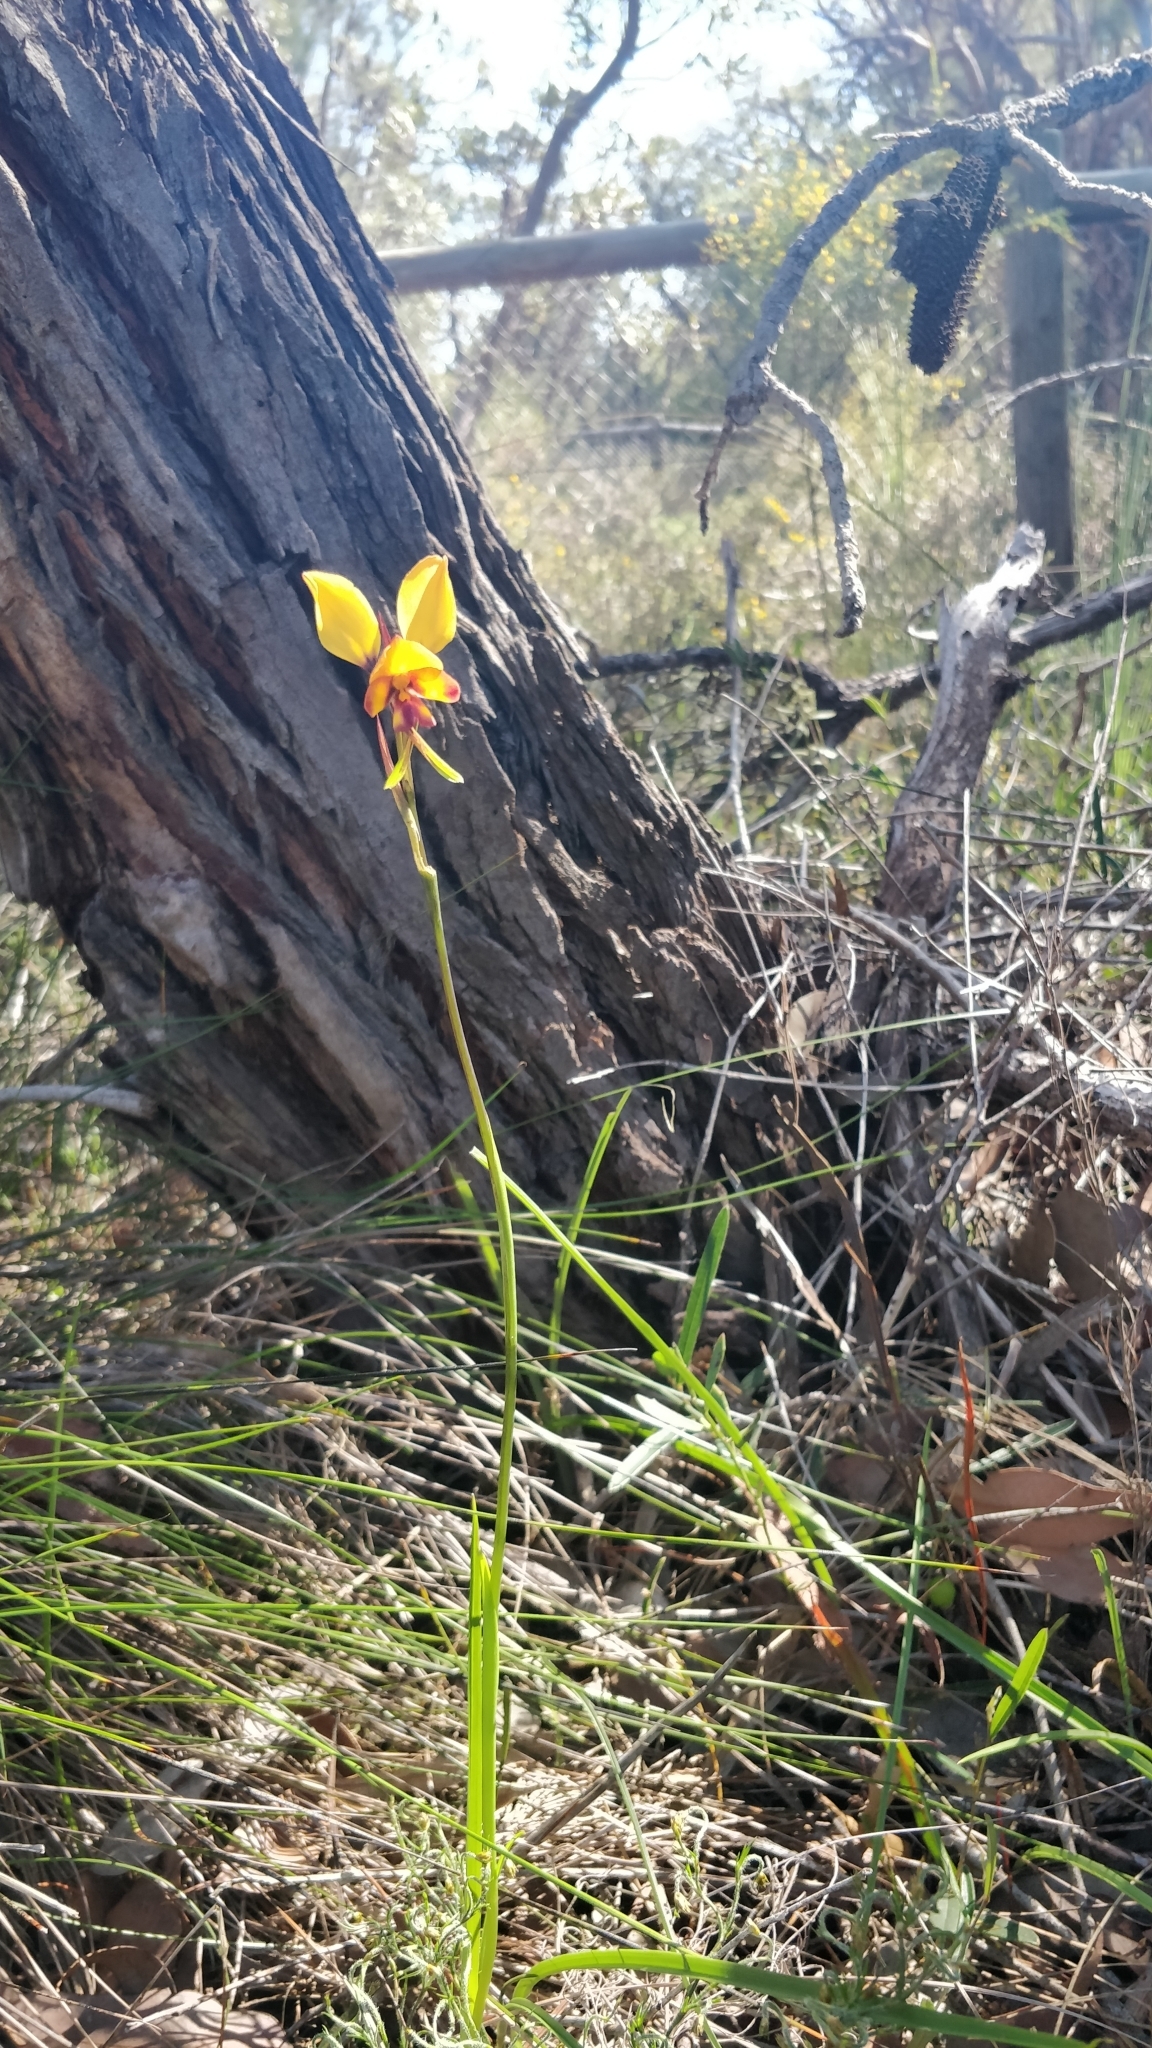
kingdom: Plantae
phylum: Tracheophyta
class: Liliopsida
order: Asparagales
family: Orchidaceae
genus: Diuris
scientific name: Diuris corymbosa
